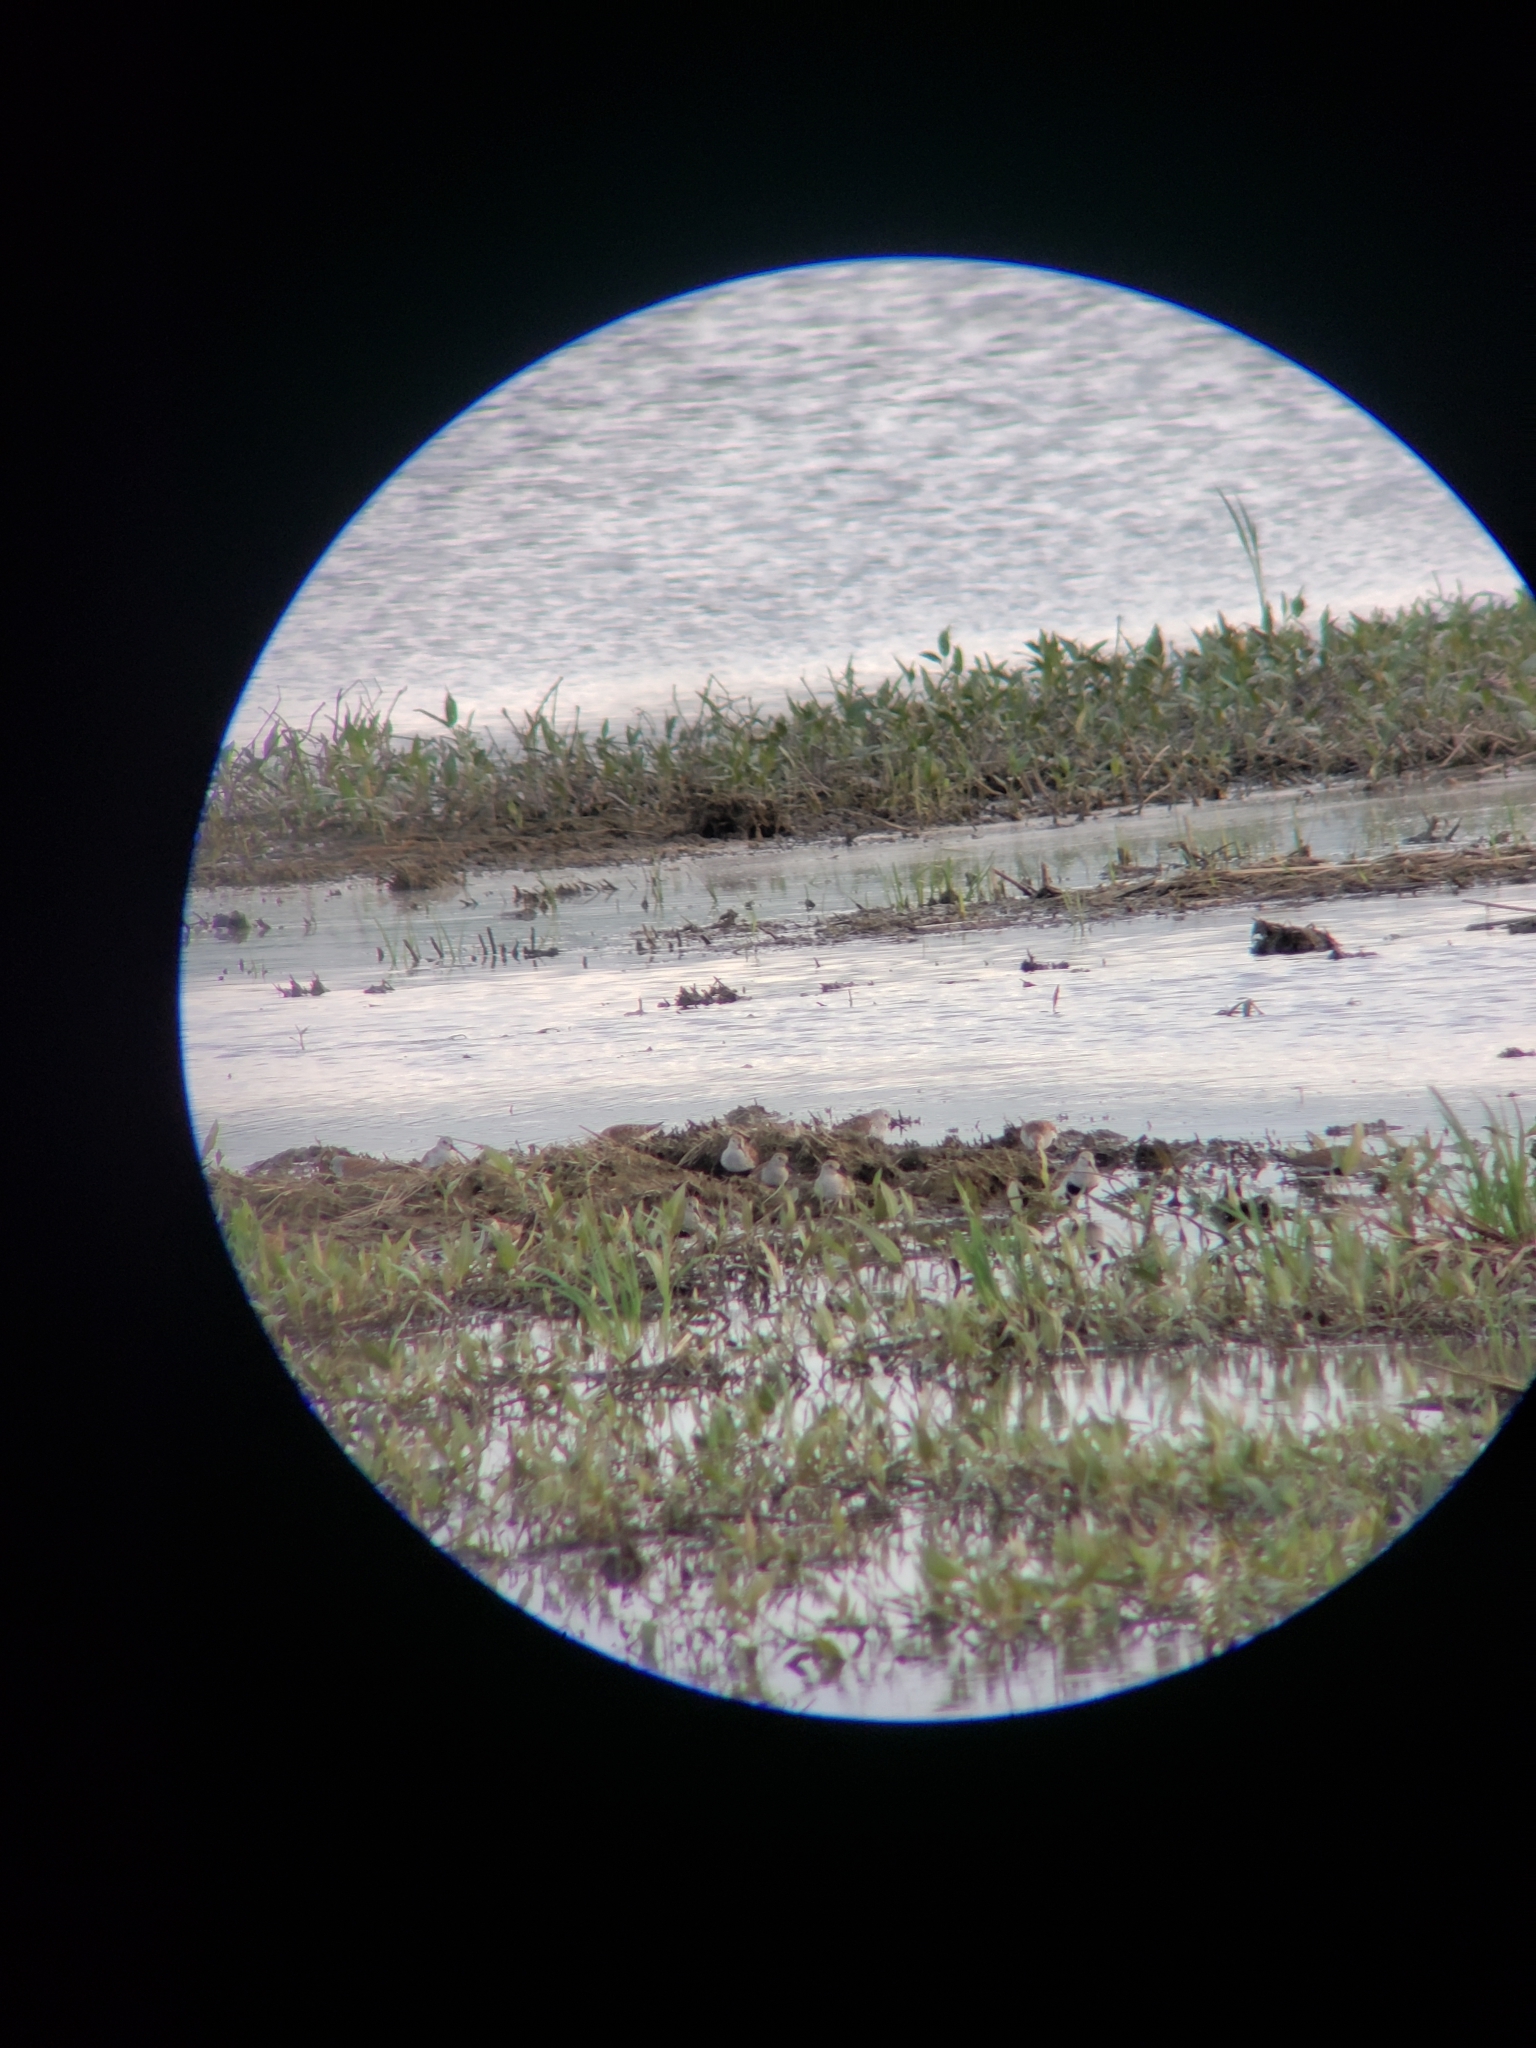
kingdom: Animalia
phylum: Chordata
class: Aves
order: Charadriiformes
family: Scolopacidae
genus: Calidris
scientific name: Calidris alpina
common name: Dunlin
